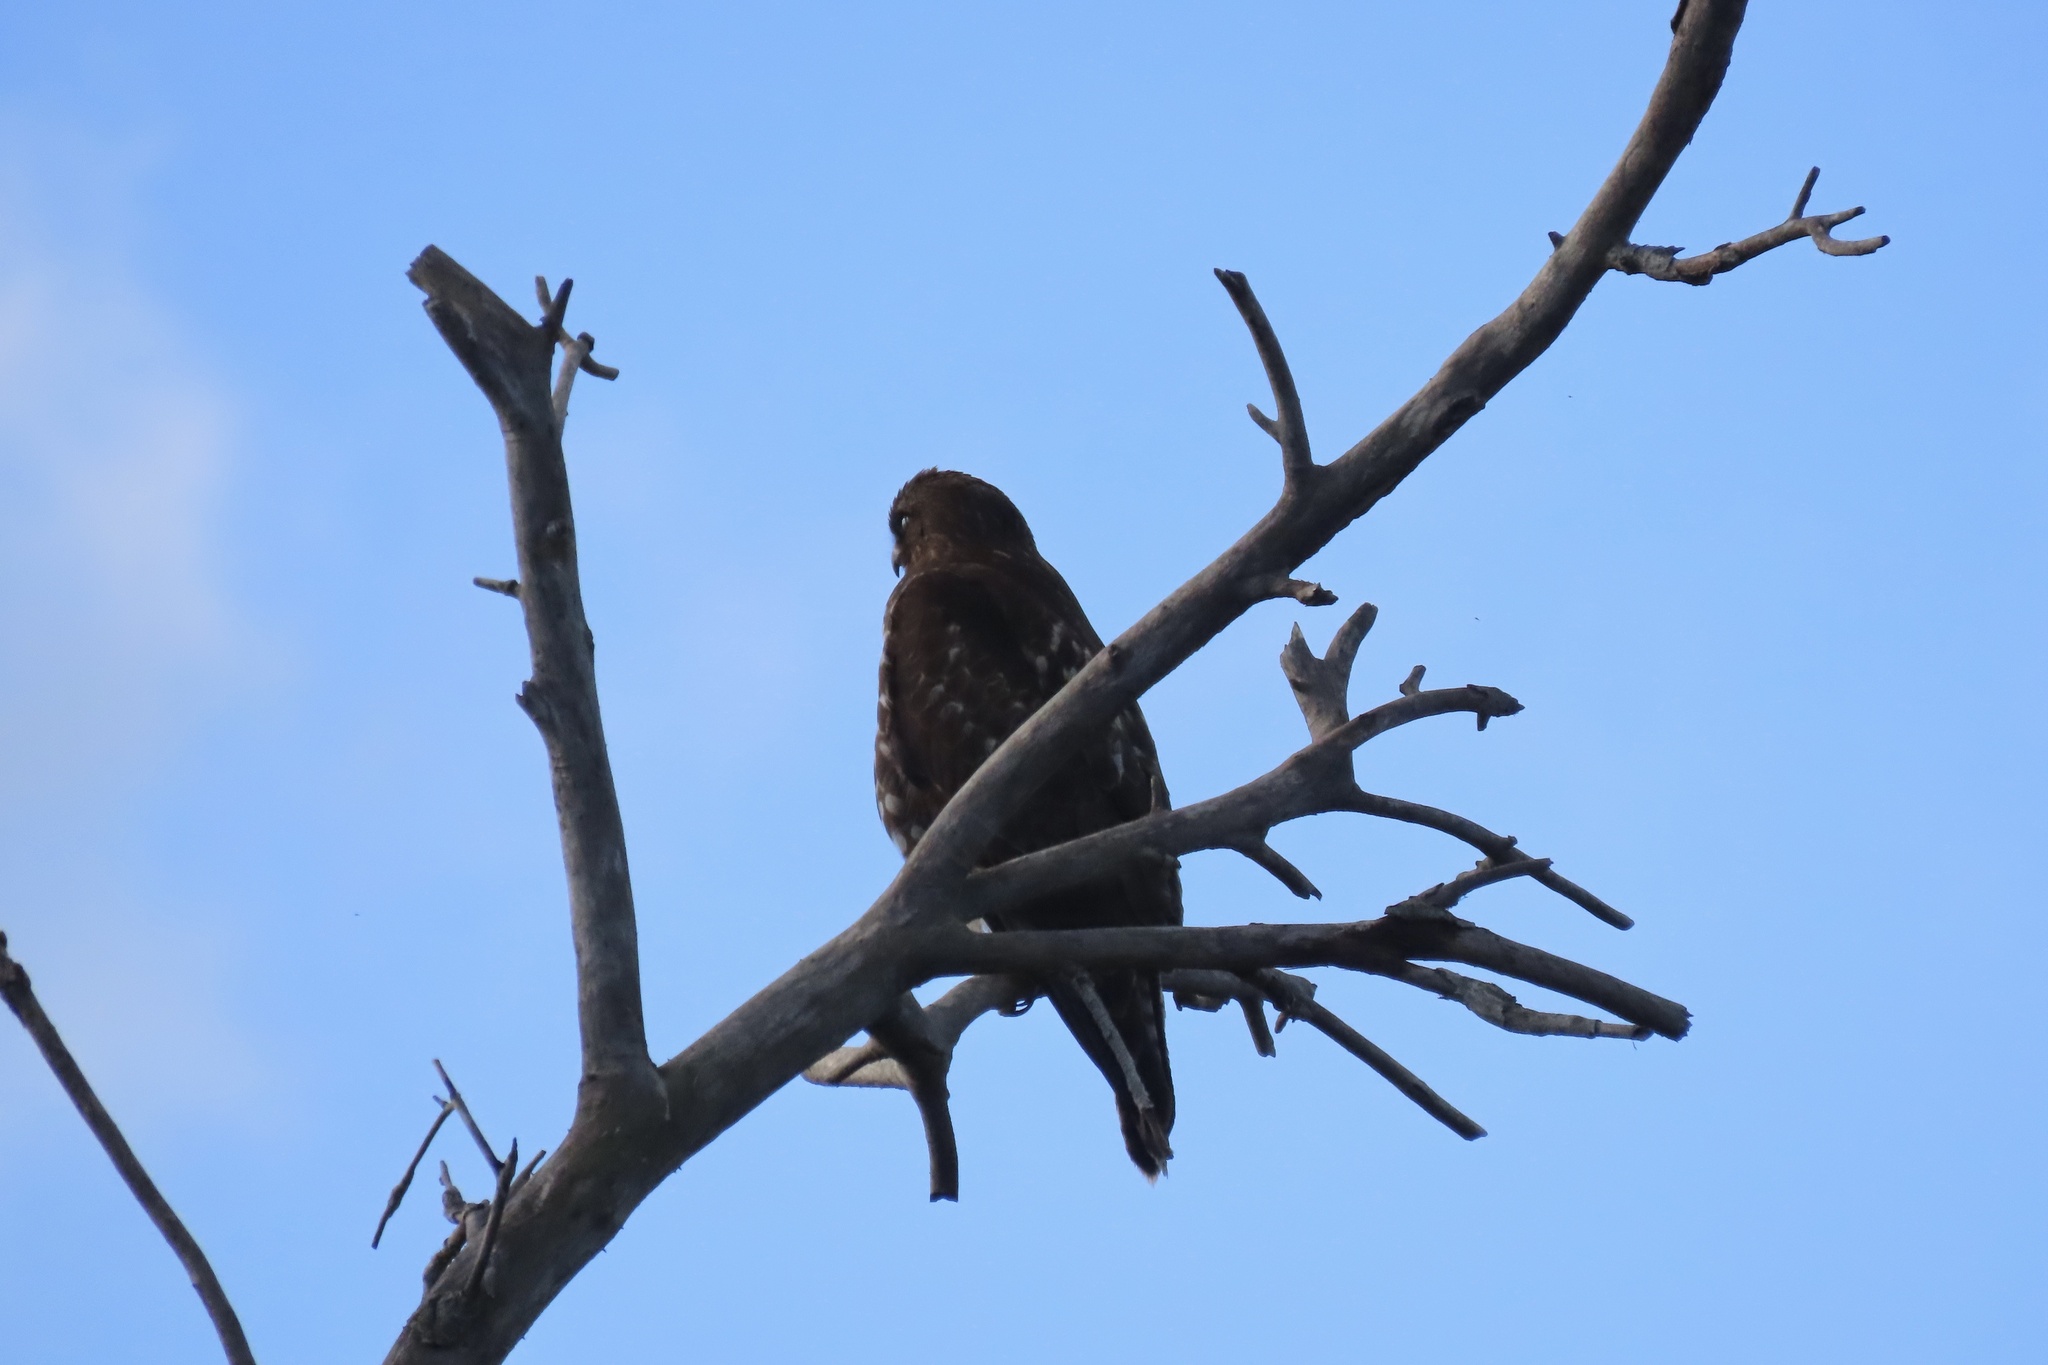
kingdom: Animalia
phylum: Chordata
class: Aves
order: Accipitriformes
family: Accipitridae
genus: Buteo
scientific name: Buteo jamaicensis
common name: Red-tailed hawk
